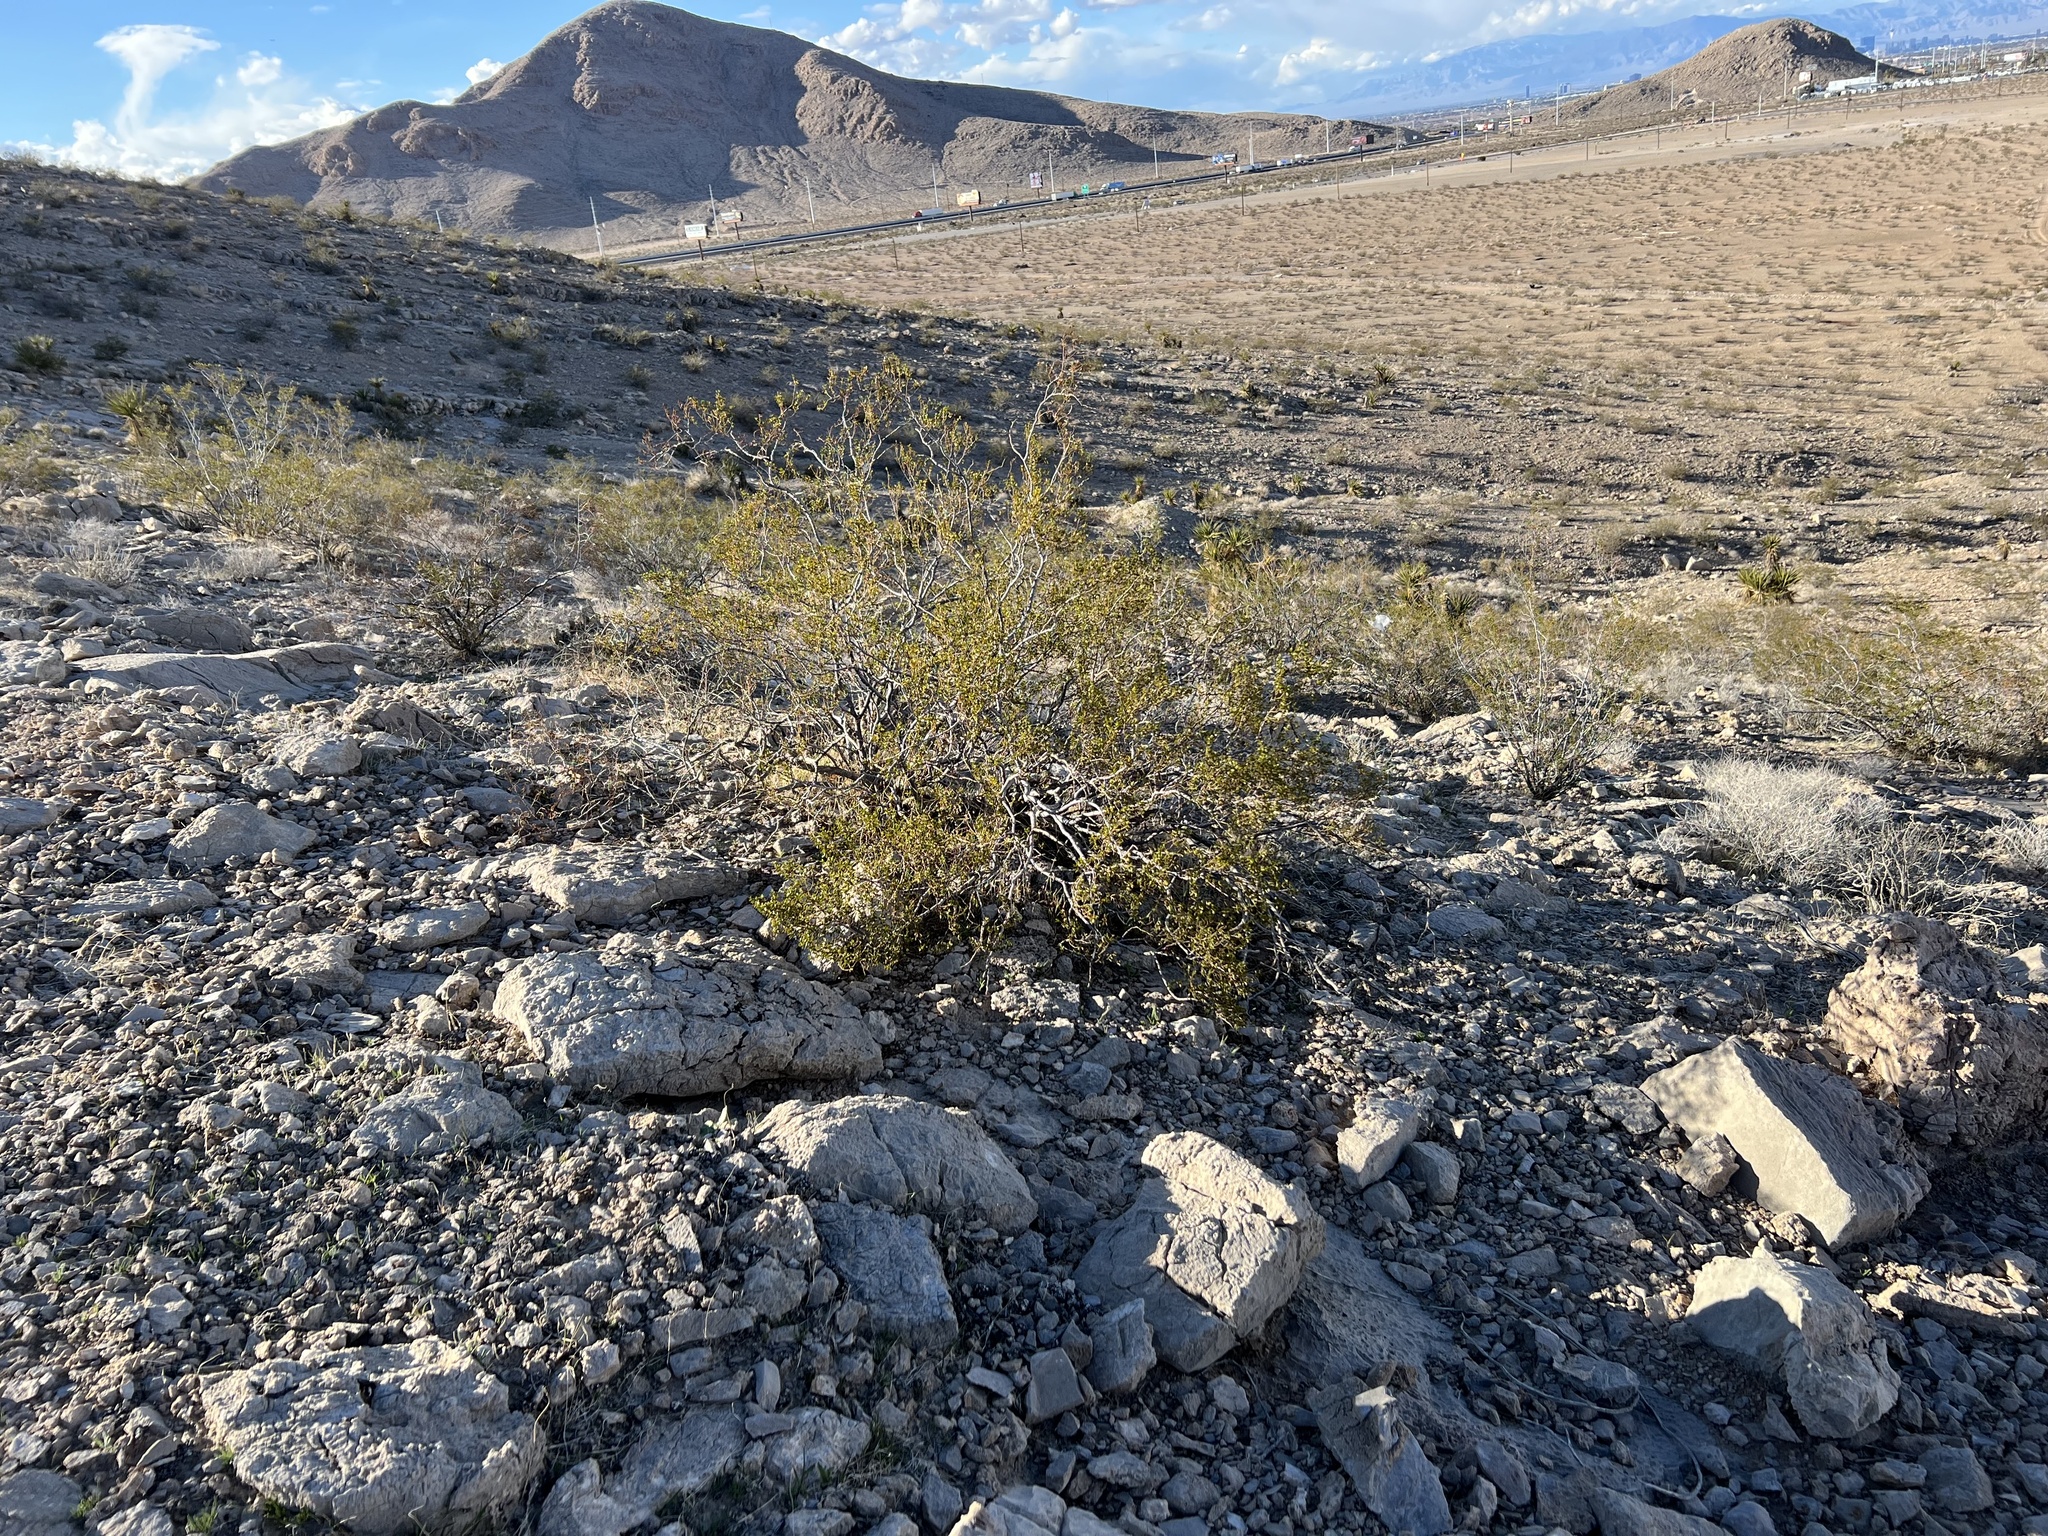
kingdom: Plantae
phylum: Tracheophyta
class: Magnoliopsida
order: Zygophyllales
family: Zygophyllaceae
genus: Larrea
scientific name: Larrea tridentata
